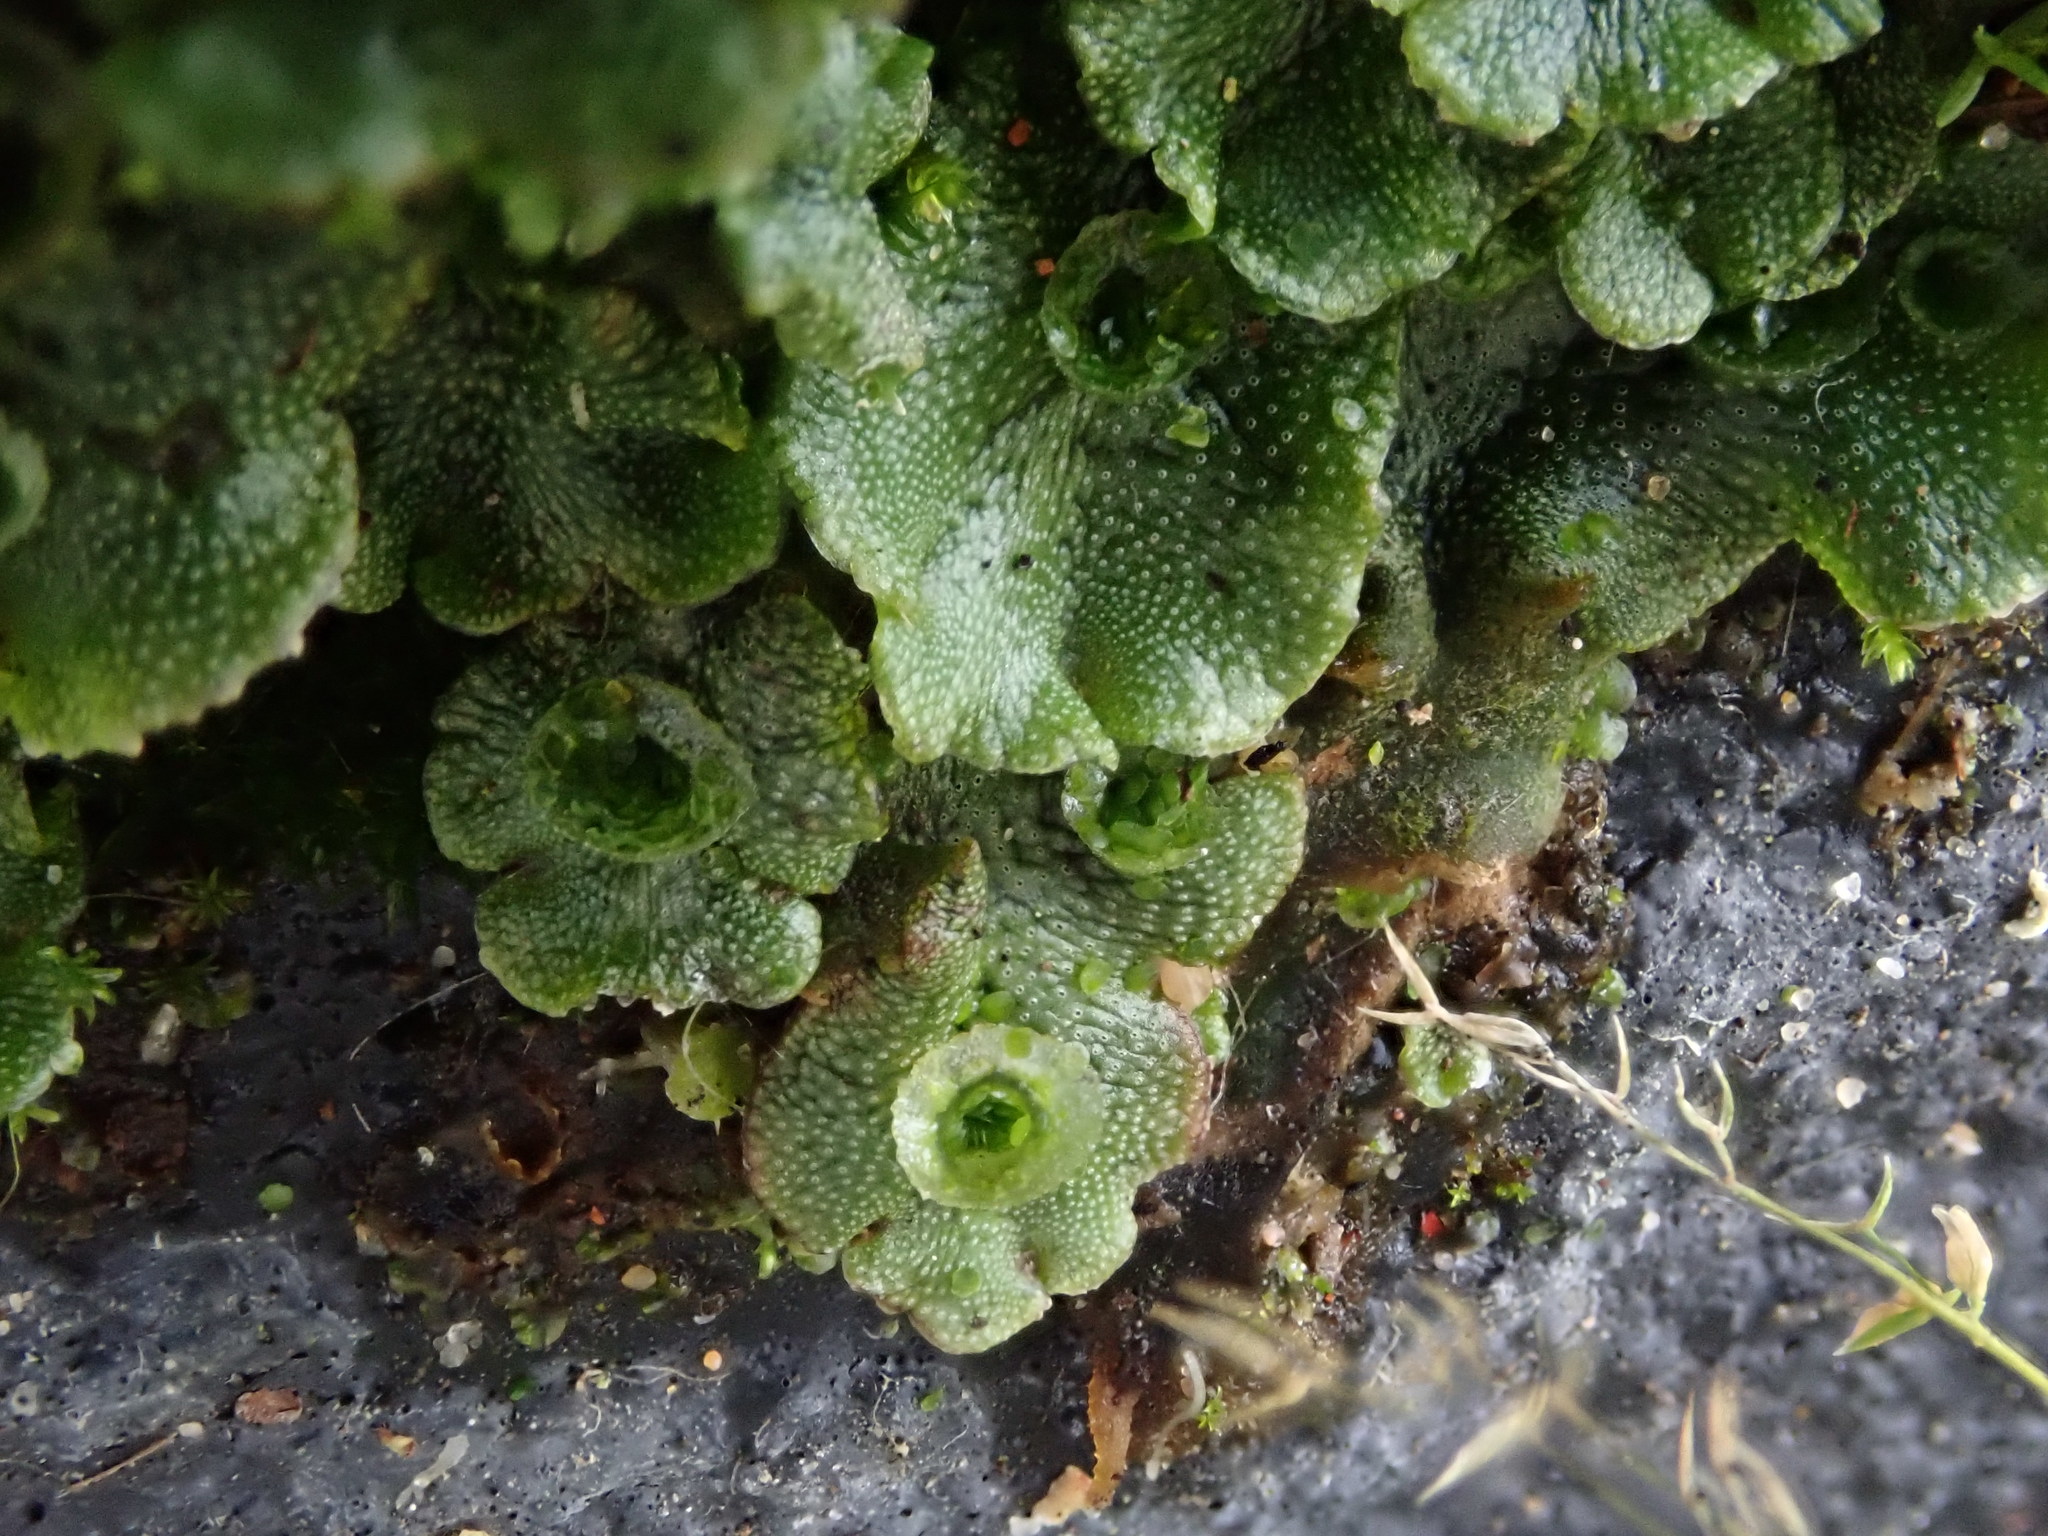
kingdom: Plantae
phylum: Marchantiophyta
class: Marchantiopsida
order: Marchantiales
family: Marchantiaceae
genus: Marchantia
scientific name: Marchantia polymorpha
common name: Common liverwort
